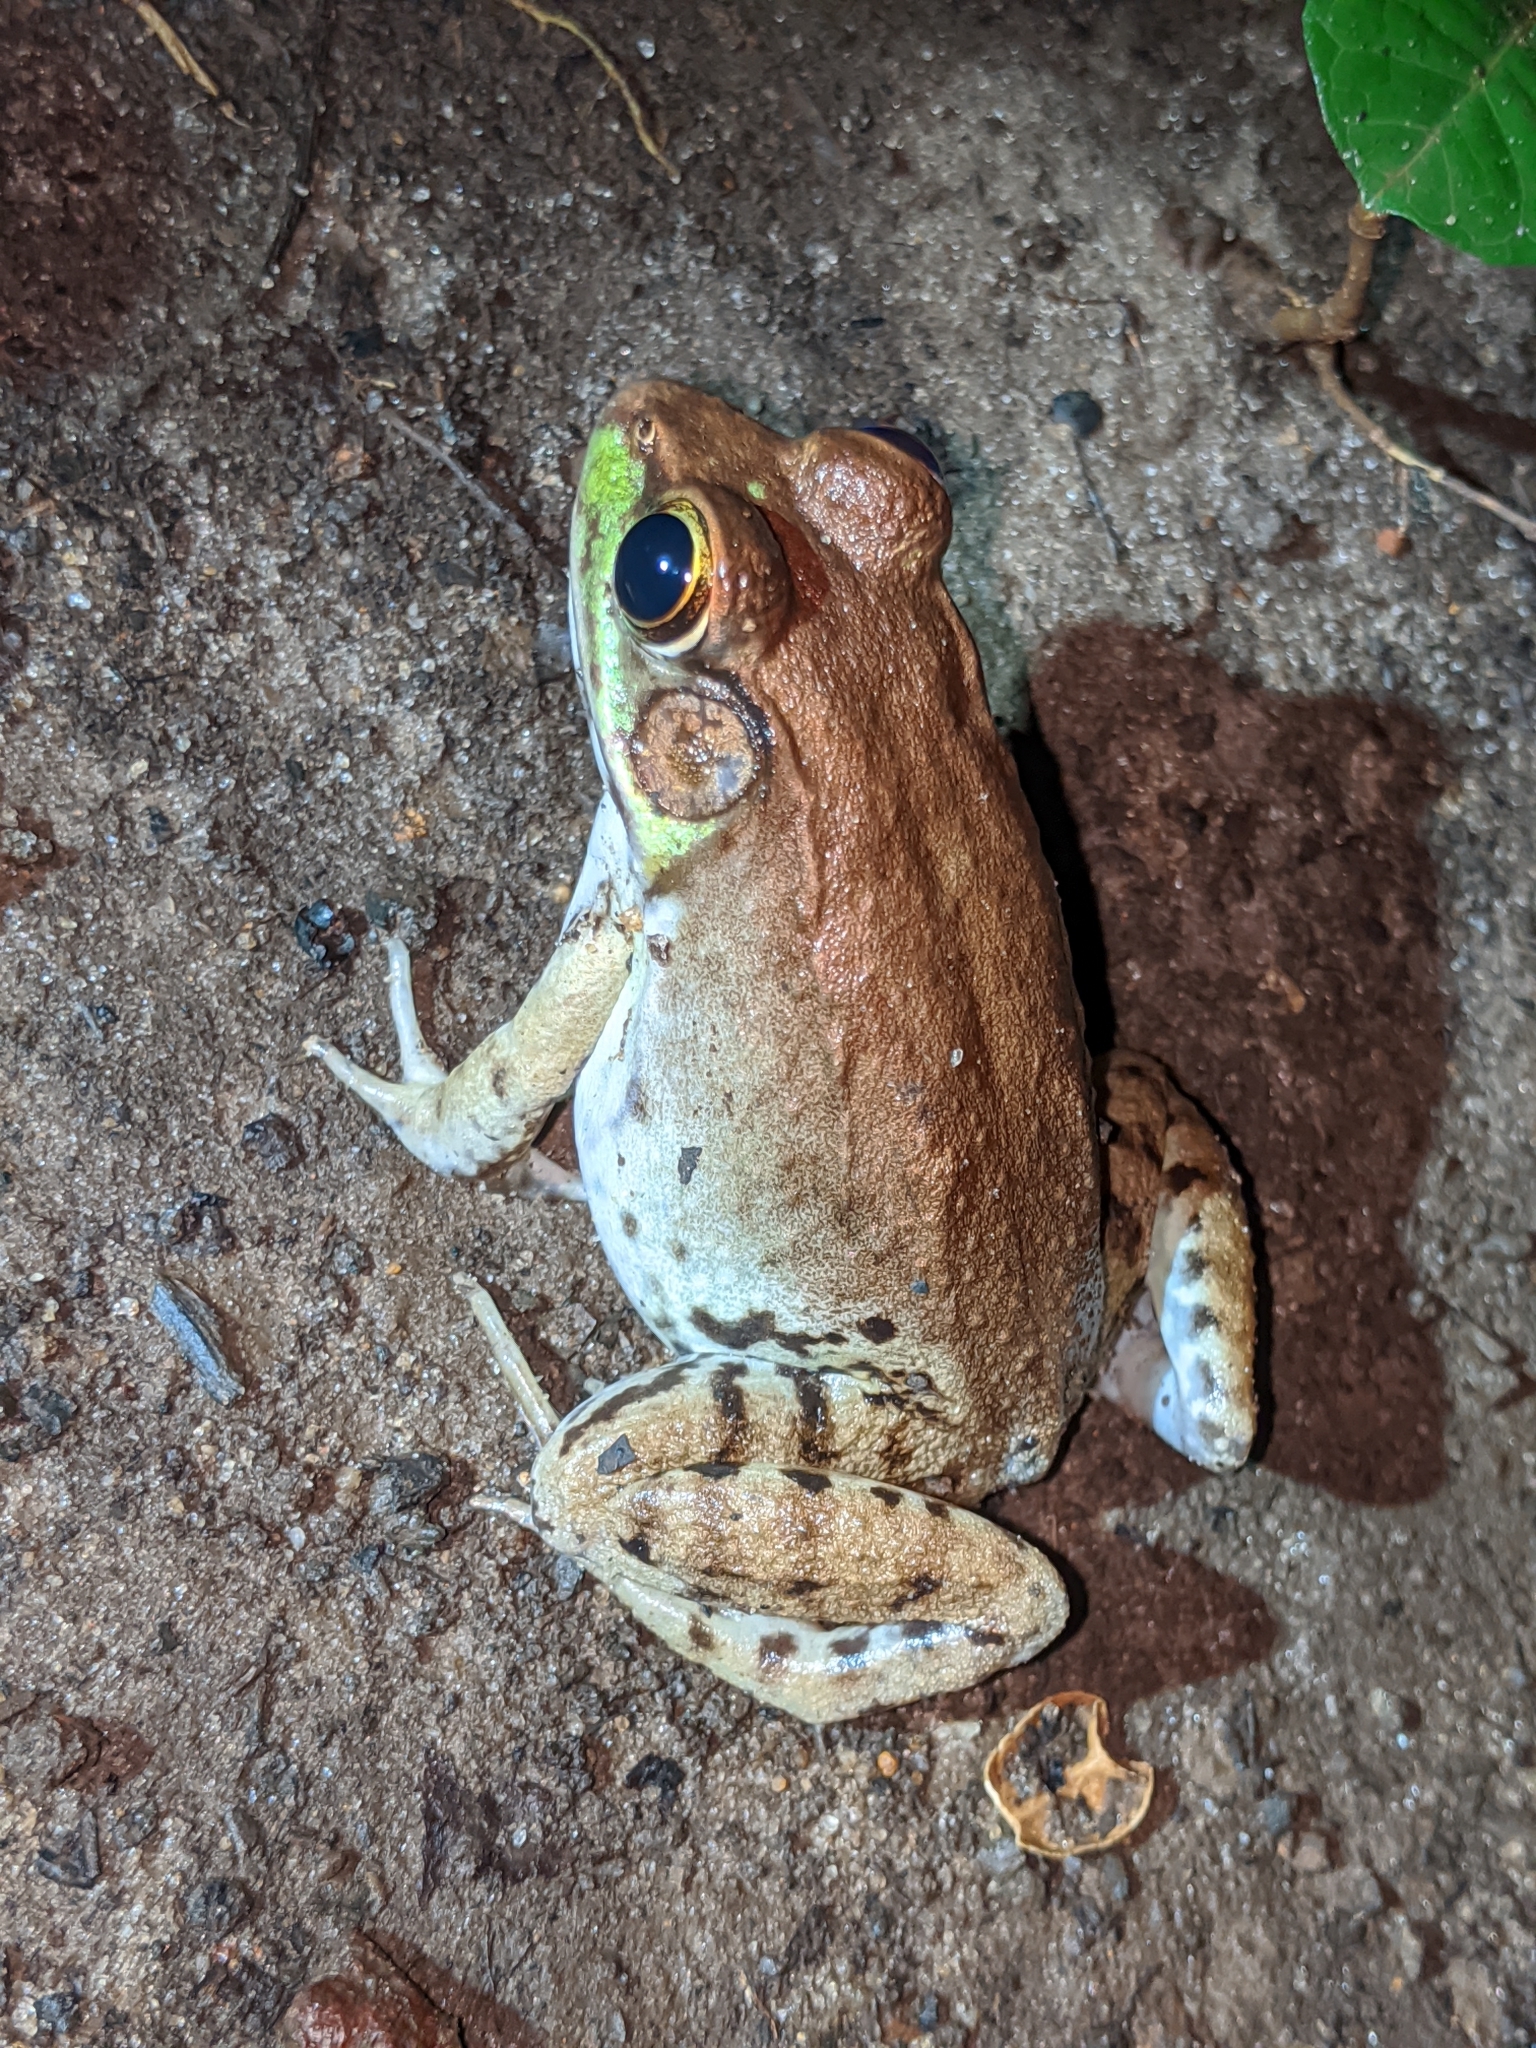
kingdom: Animalia
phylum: Chordata
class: Amphibia
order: Anura
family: Ranidae
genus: Lithobates
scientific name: Lithobates clamitans
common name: Green frog
